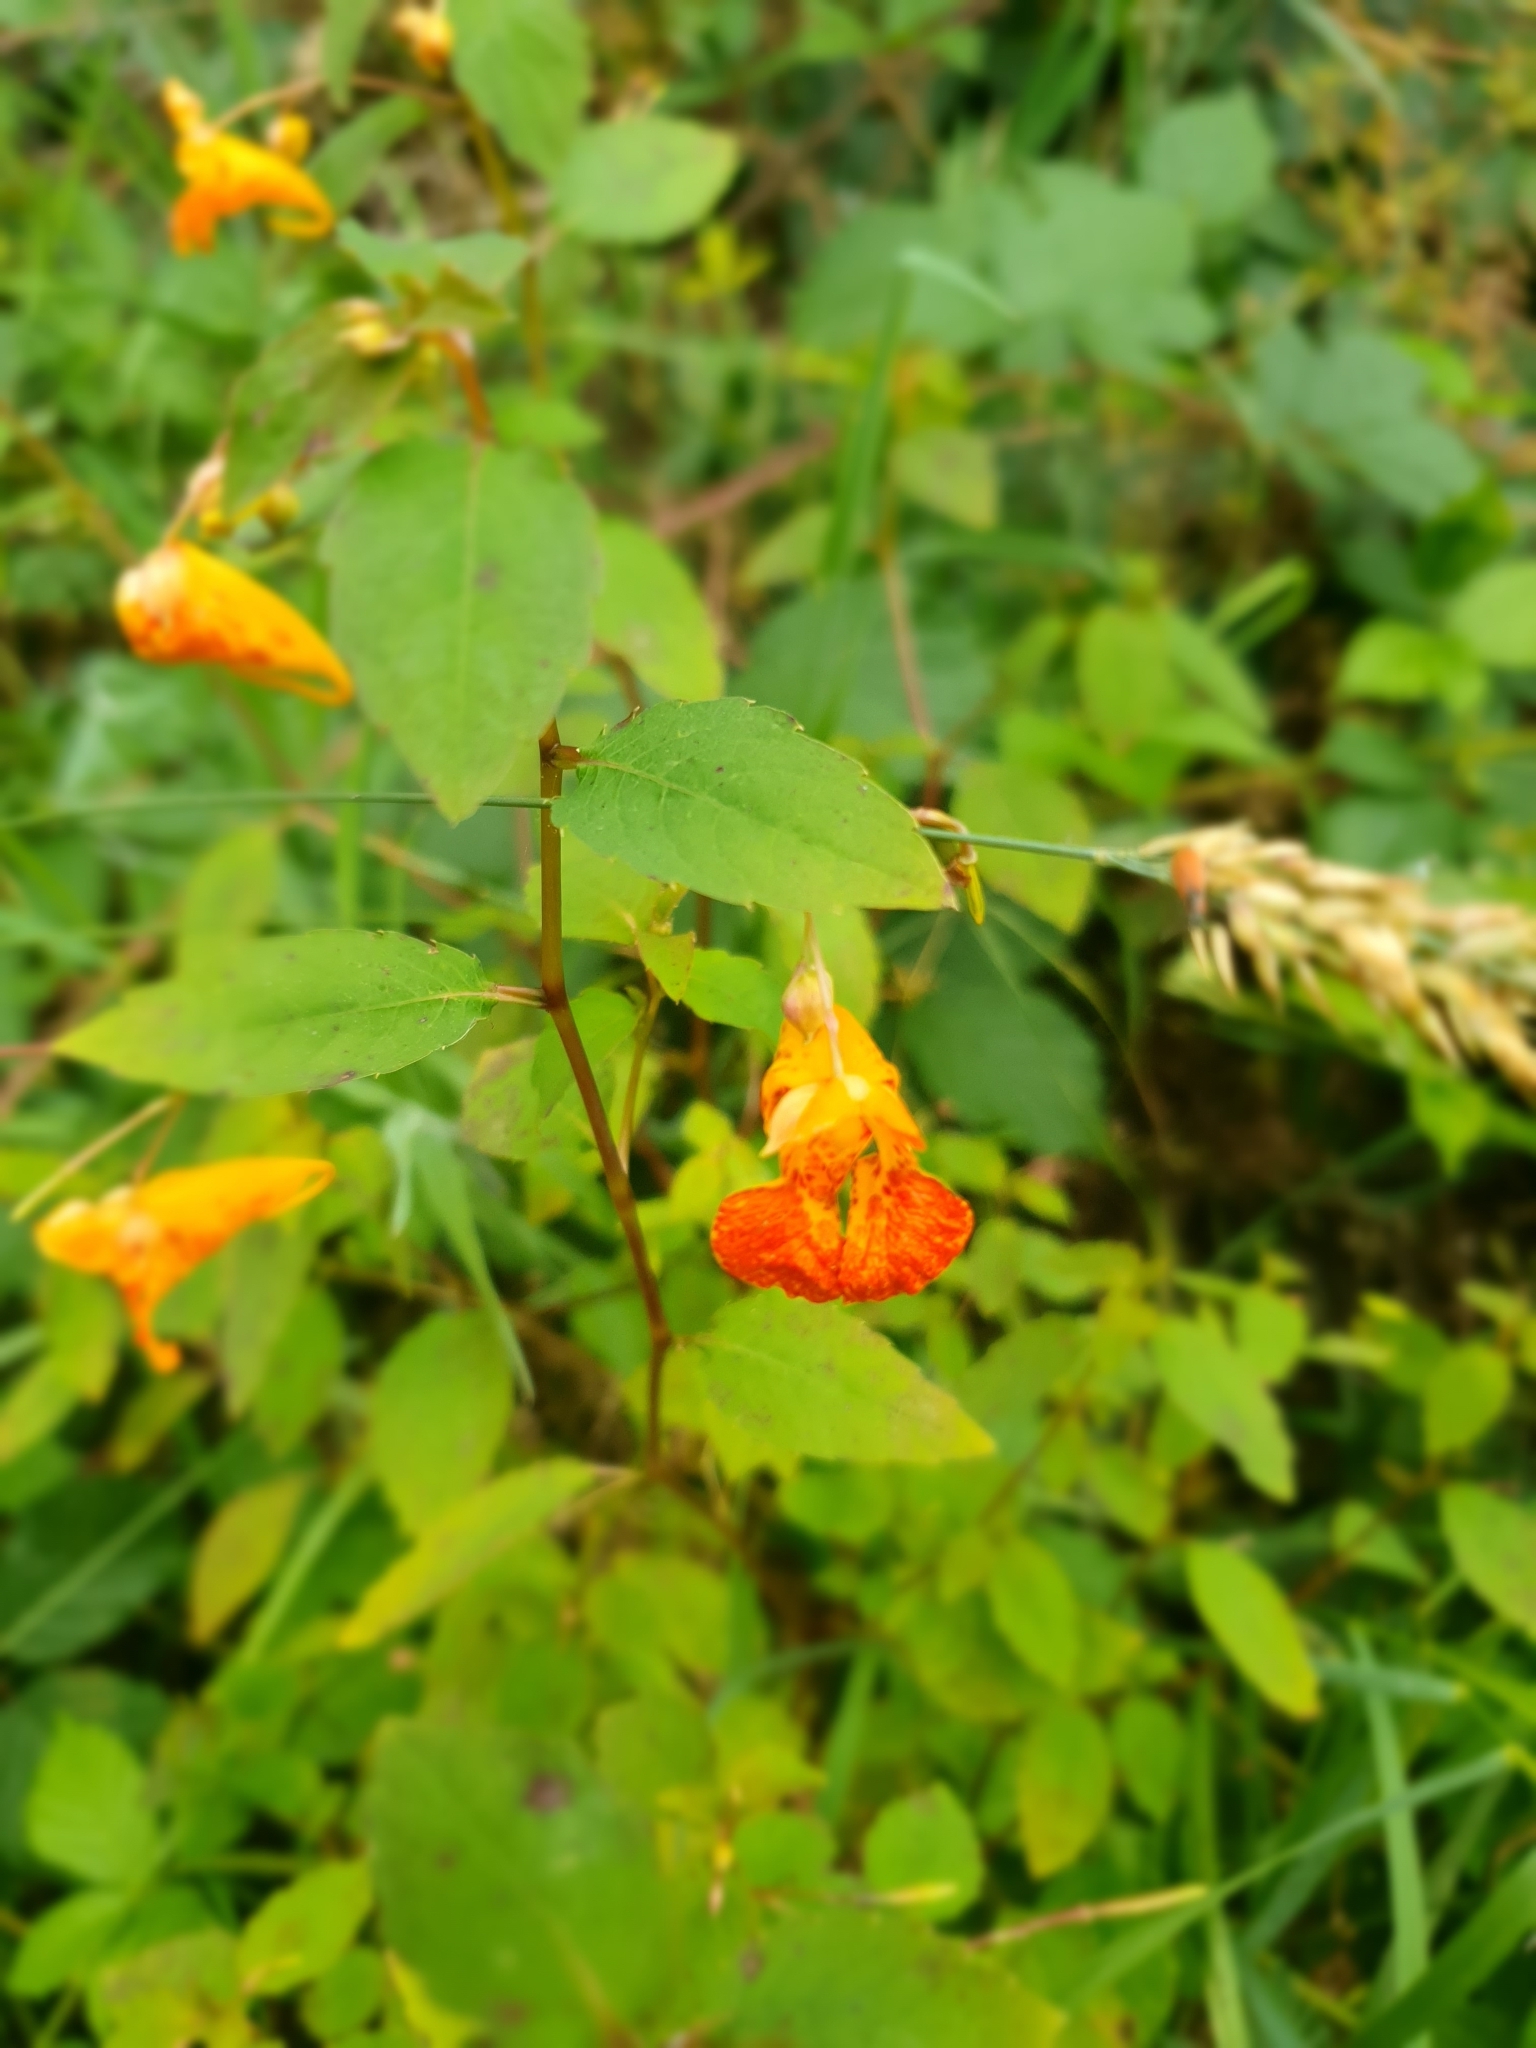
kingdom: Plantae
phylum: Tracheophyta
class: Magnoliopsida
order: Ericales
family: Balsaminaceae
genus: Impatiens
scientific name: Impatiens capensis
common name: Orange balsam
